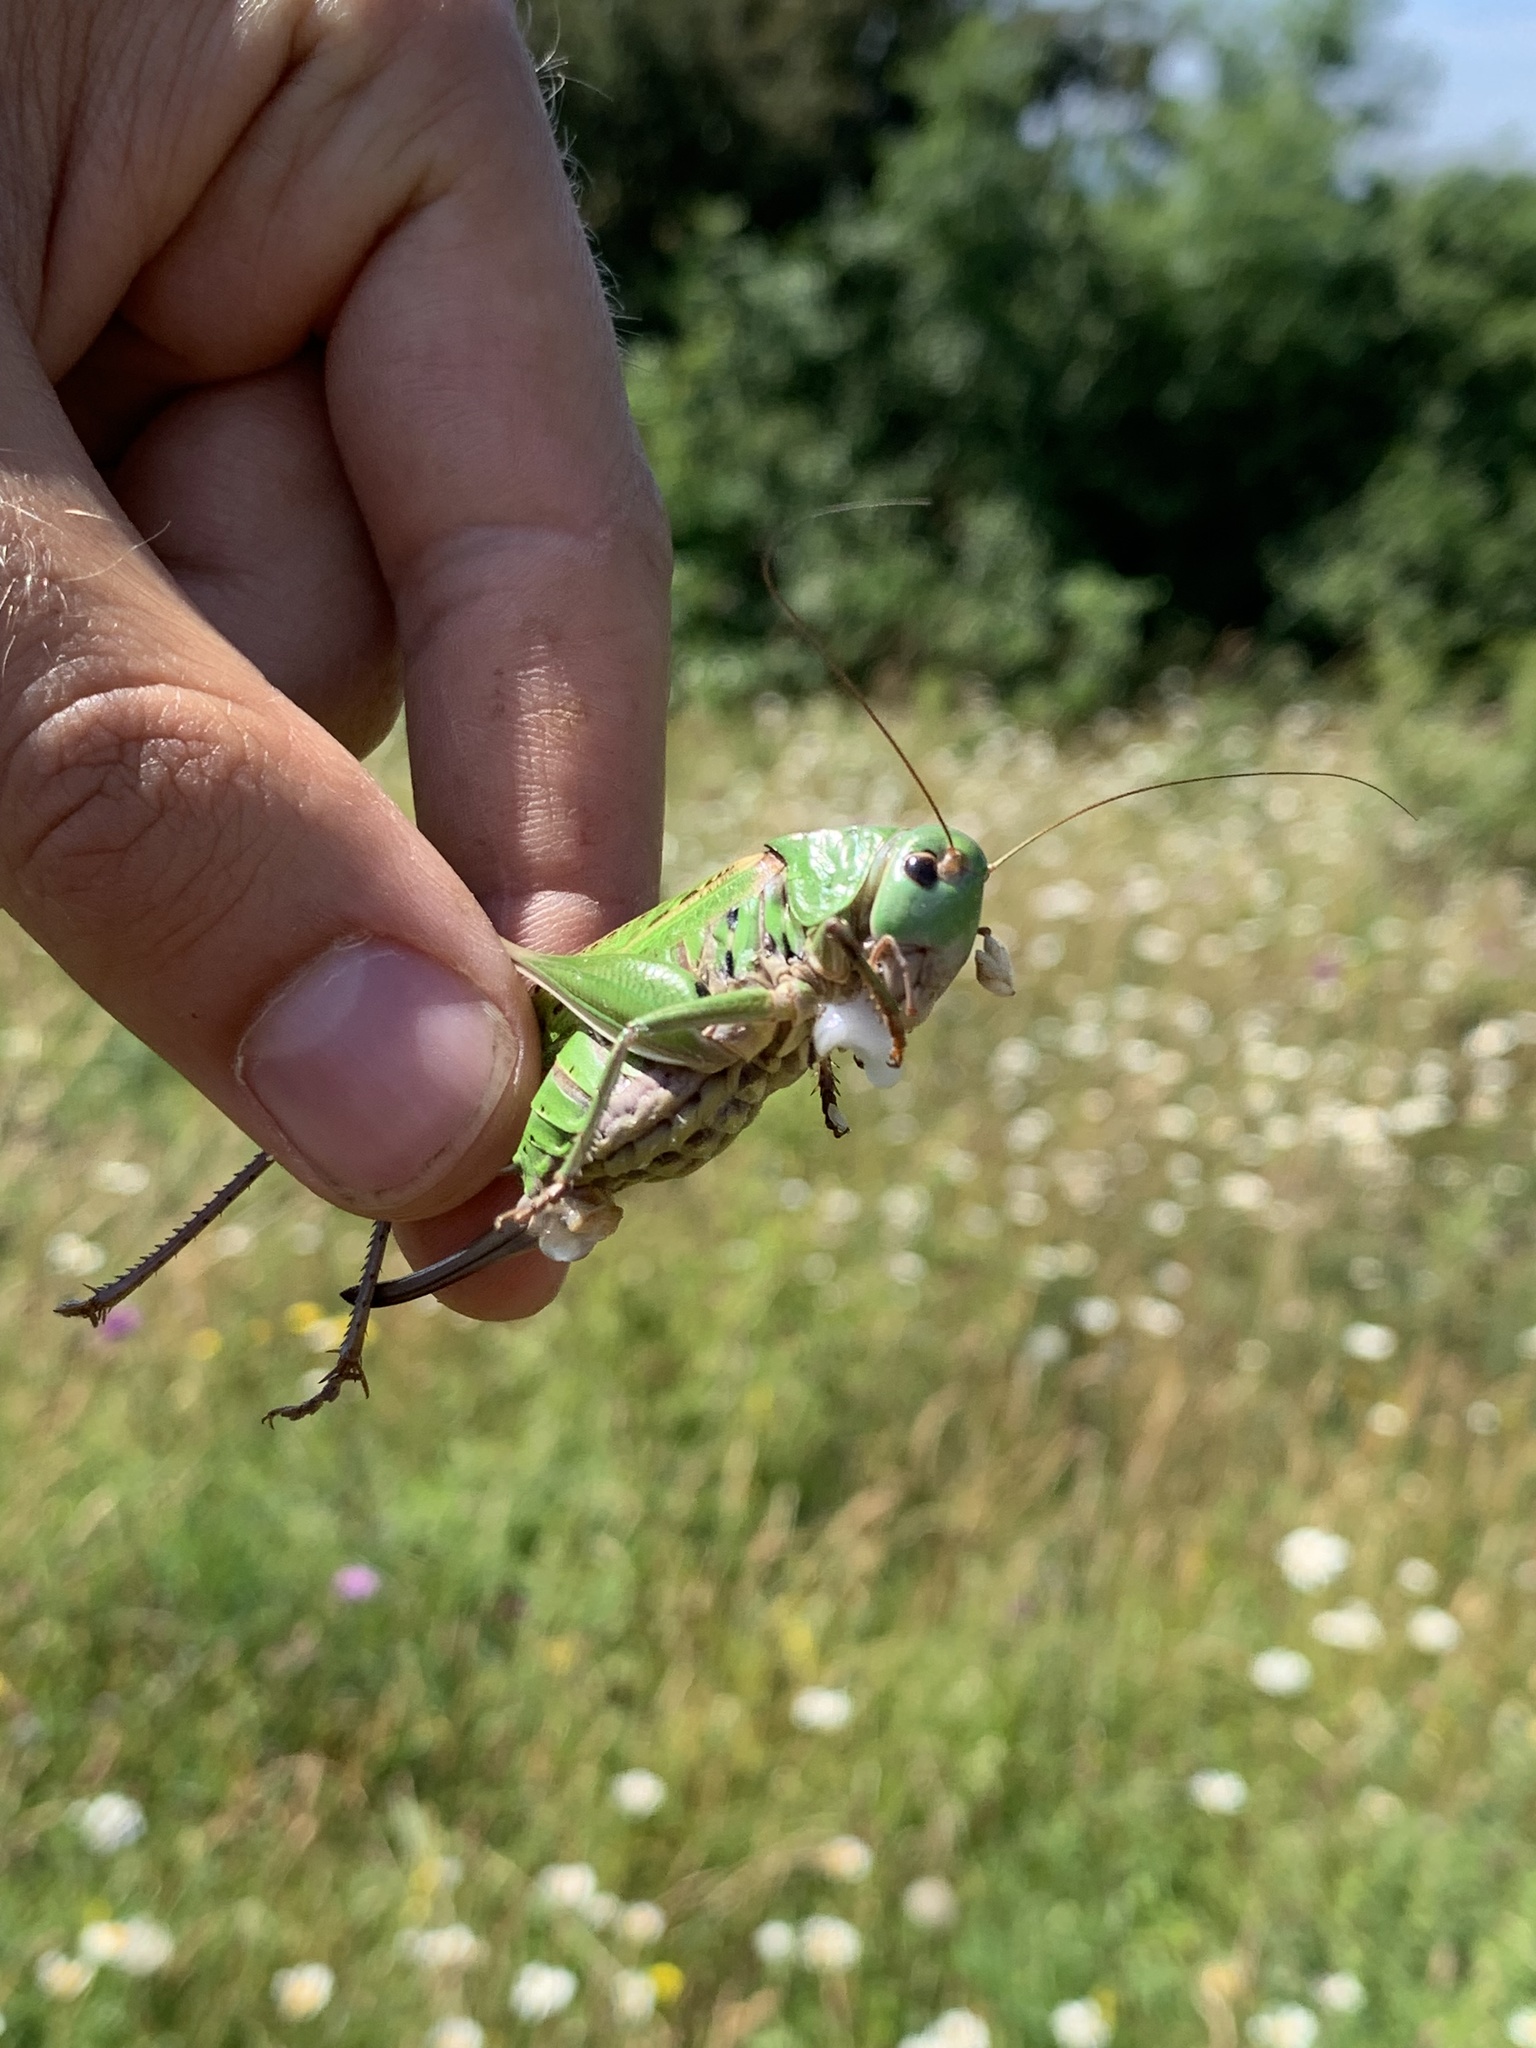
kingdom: Animalia
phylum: Arthropoda
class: Insecta
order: Orthoptera
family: Tettigoniidae
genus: Decticus
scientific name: Decticus verrucivorus
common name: Wart-biter
